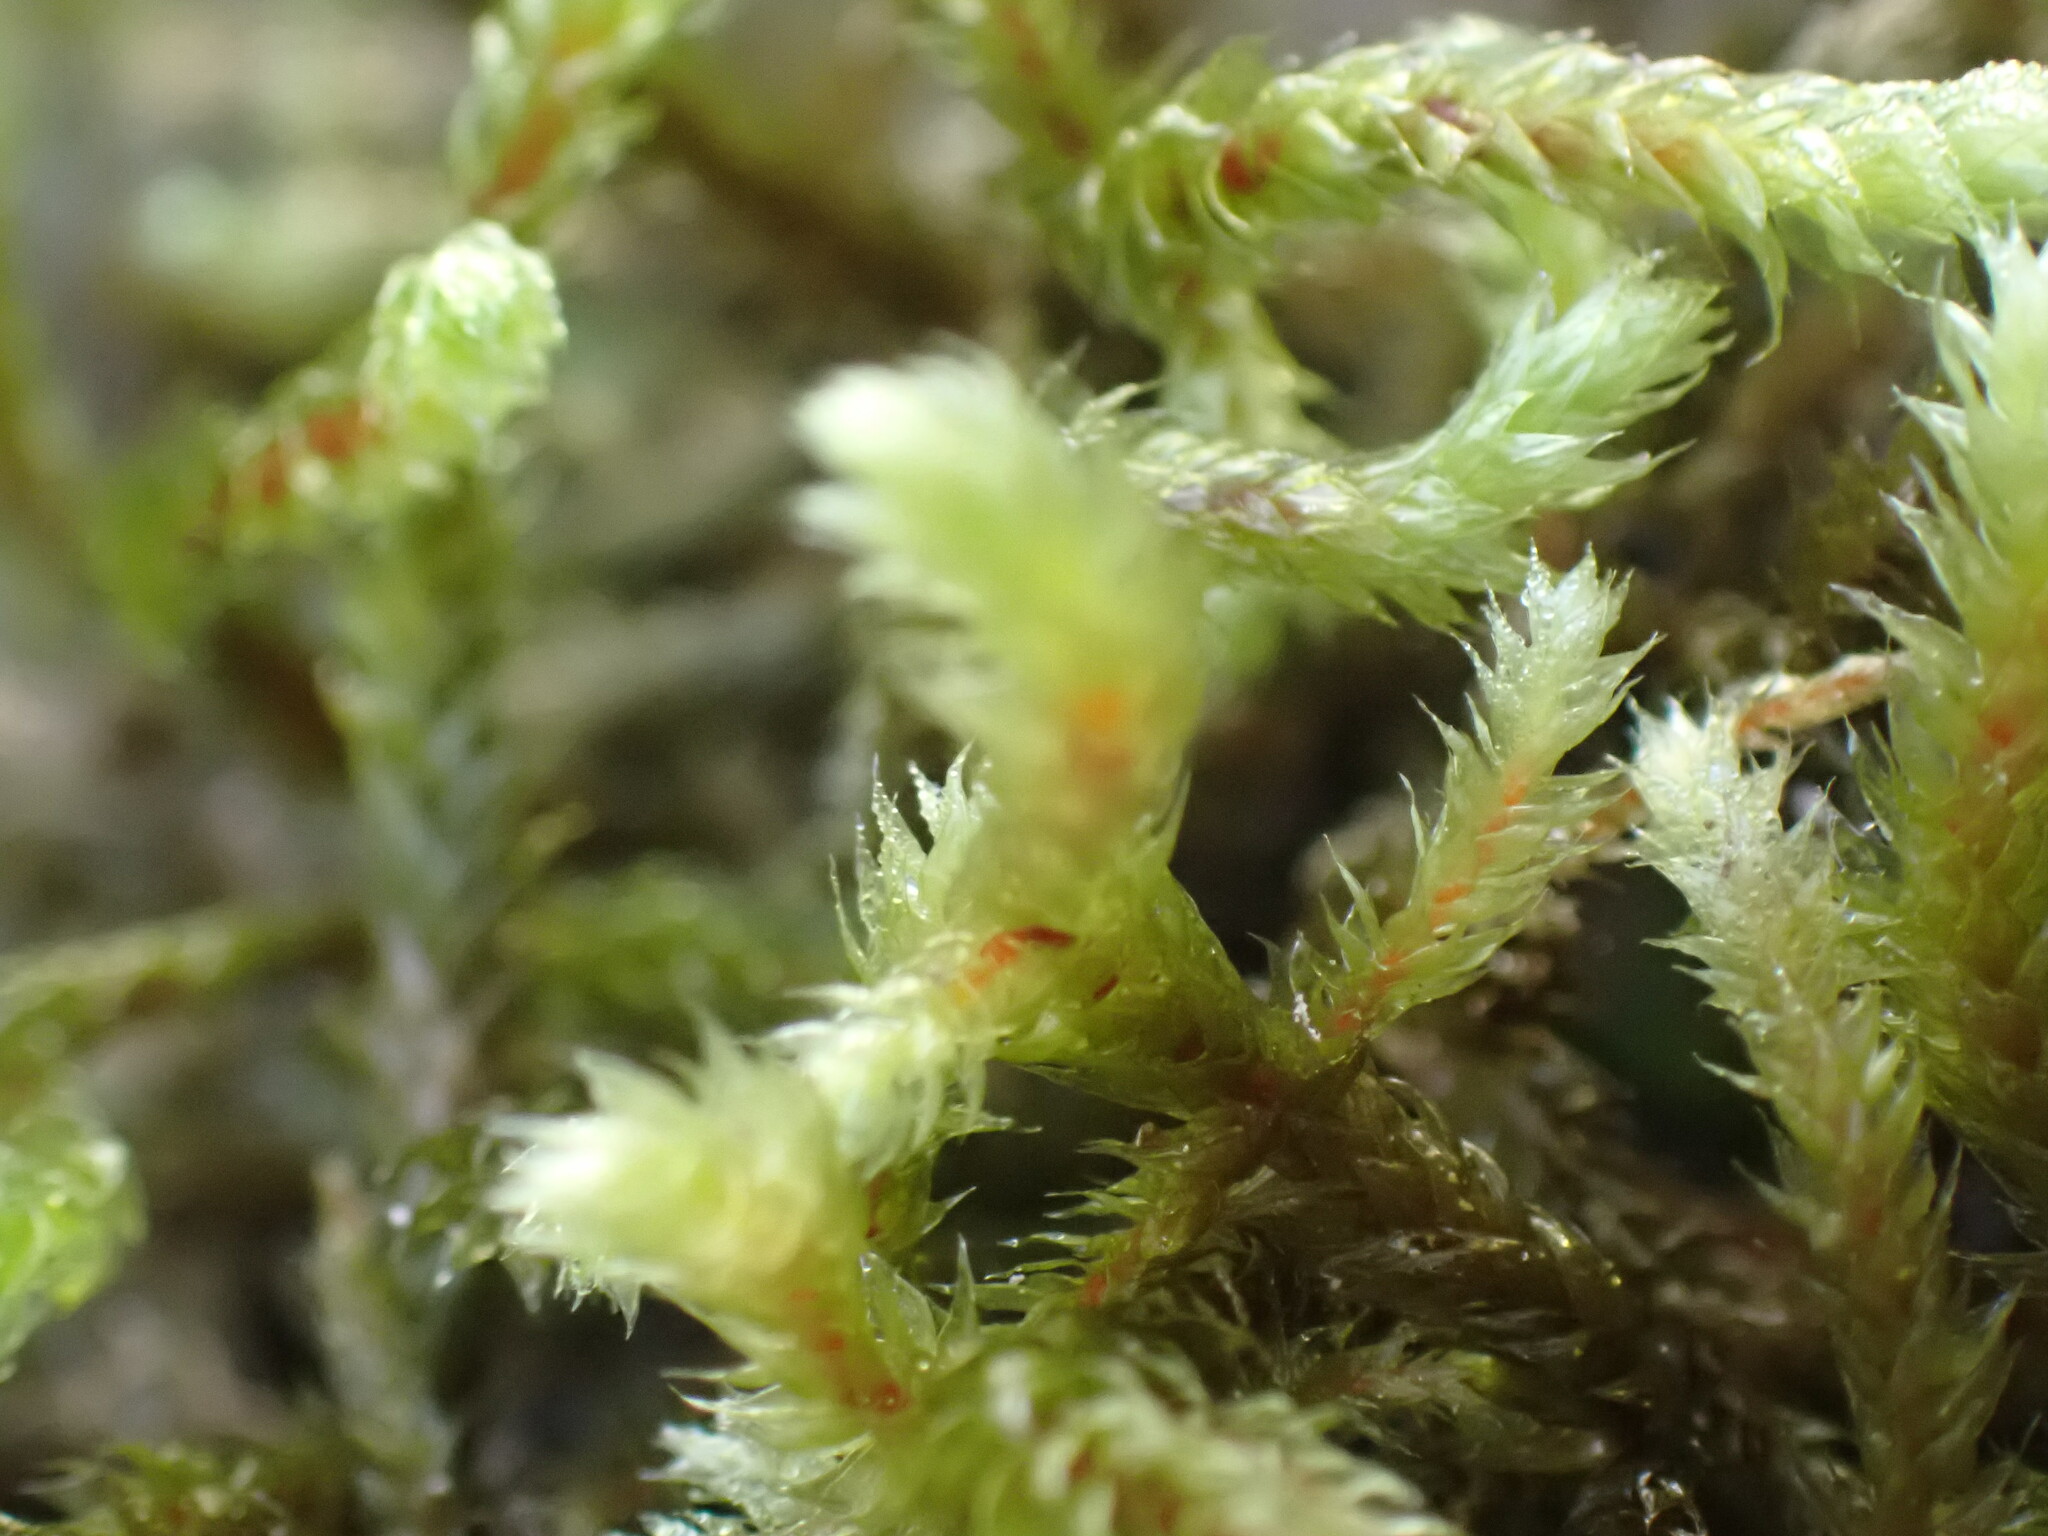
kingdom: Plantae
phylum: Bryophyta
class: Bryopsida
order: Hypnales
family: Antitrichiaceae
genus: Antitrichia
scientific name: Antitrichia curtipendula
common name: Pendulous wing-moss
